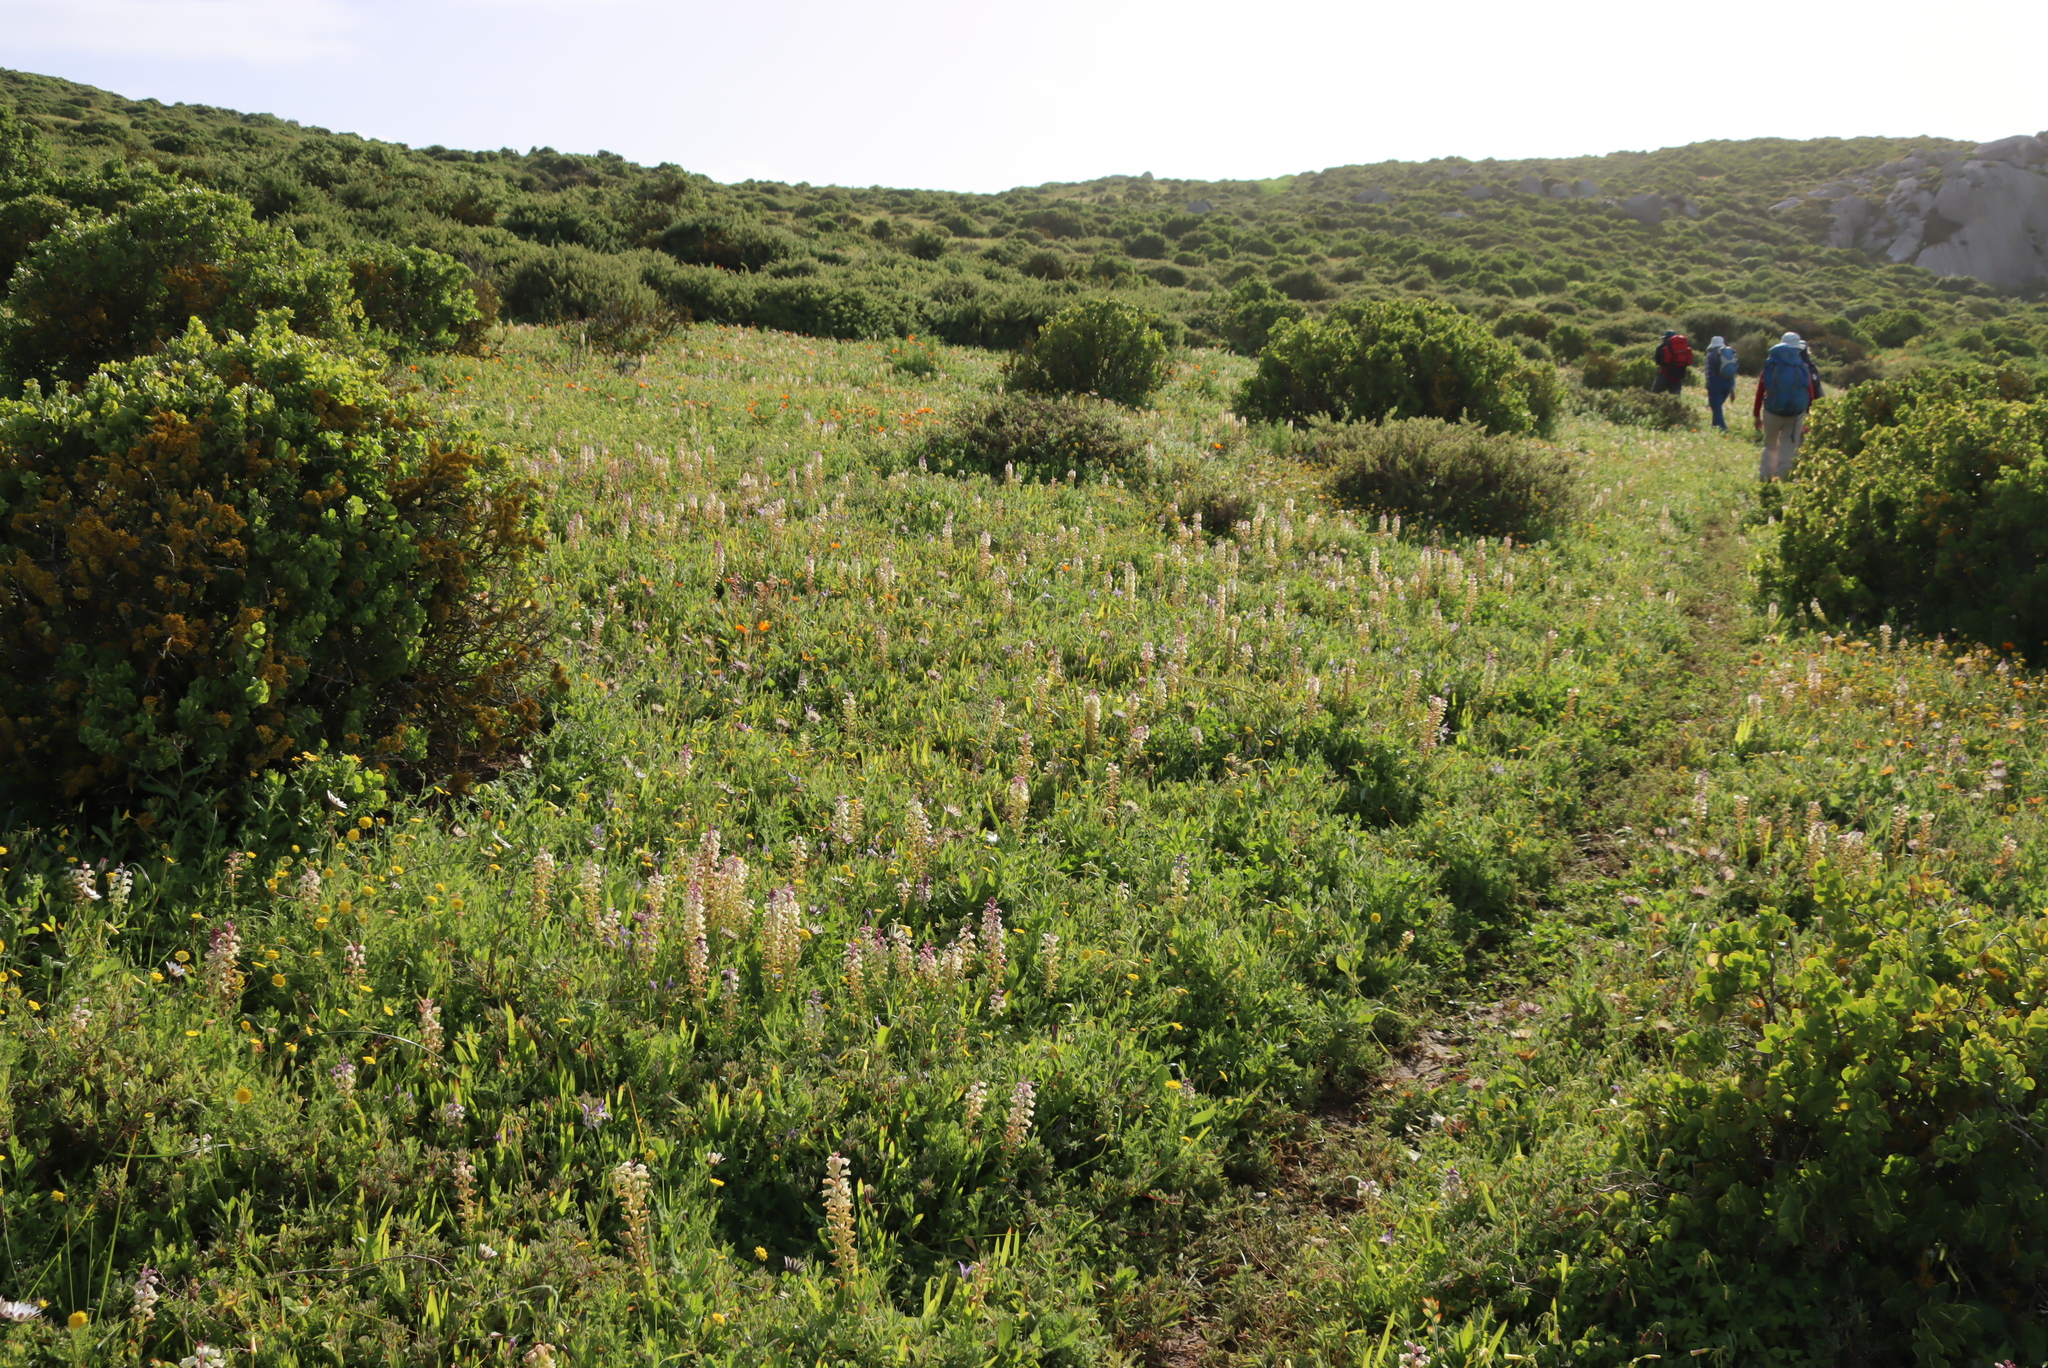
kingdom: Plantae
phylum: Tracheophyta
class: Liliopsida
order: Asparagales
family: Asparagaceae
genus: Lachenalia
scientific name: Lachenalia pallida
